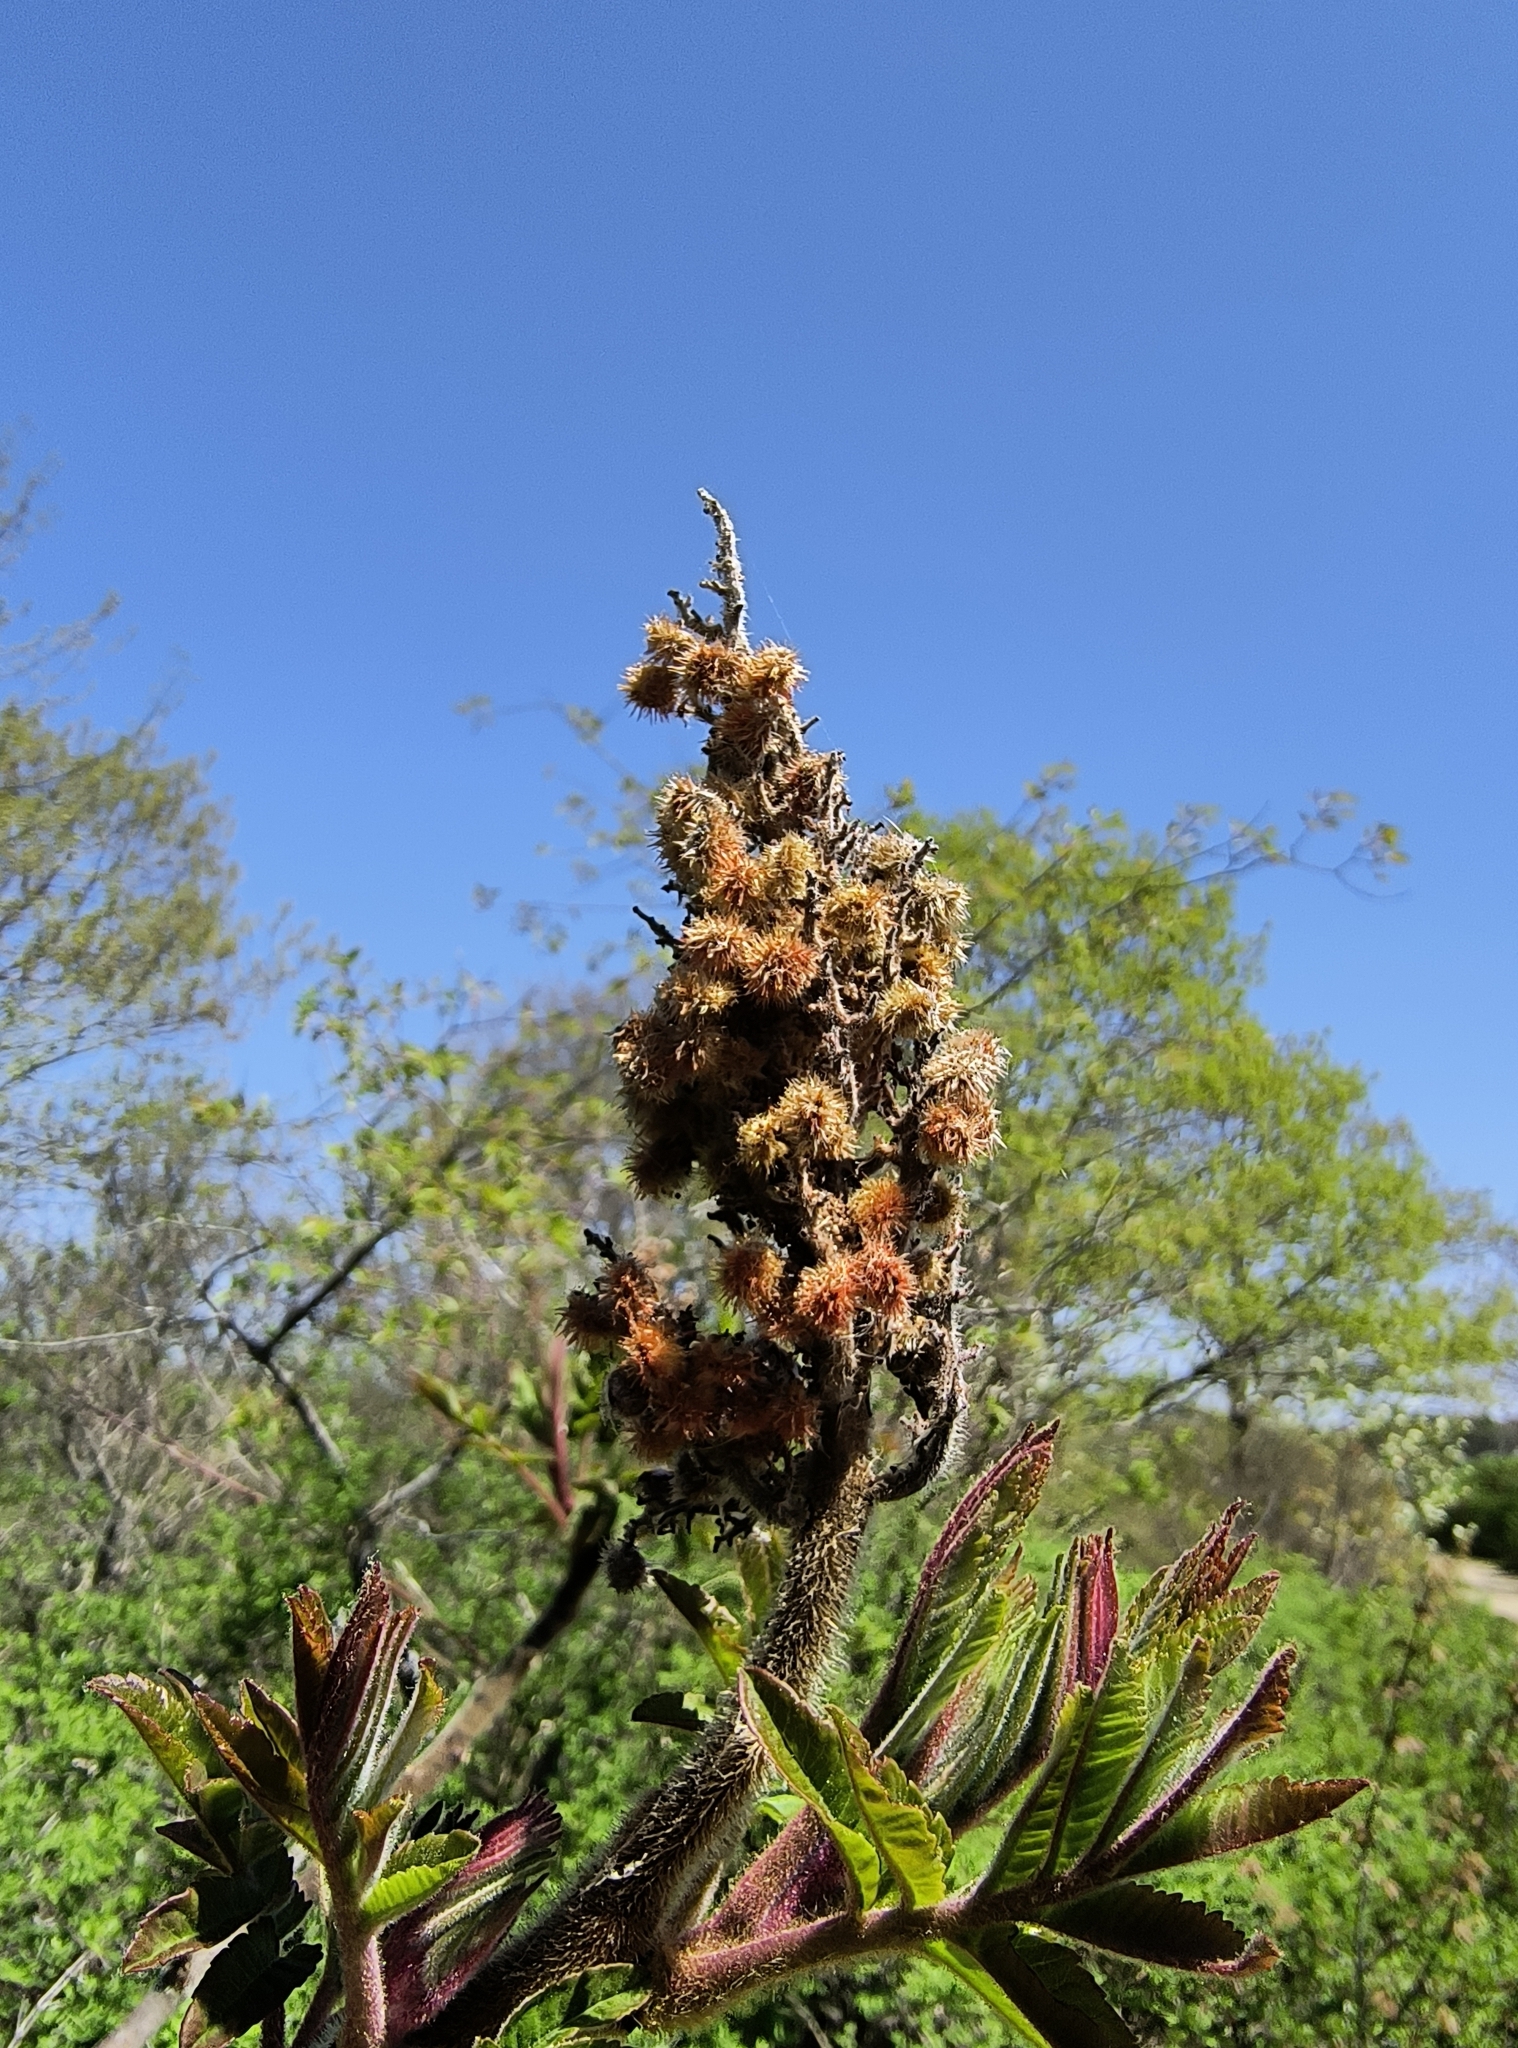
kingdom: Plantae
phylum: Tracheophyta
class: Magnoliopsida
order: Sapindales
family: Anacardiaceae
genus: Rhus
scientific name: Rhus typhina
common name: Staghorn sumac
